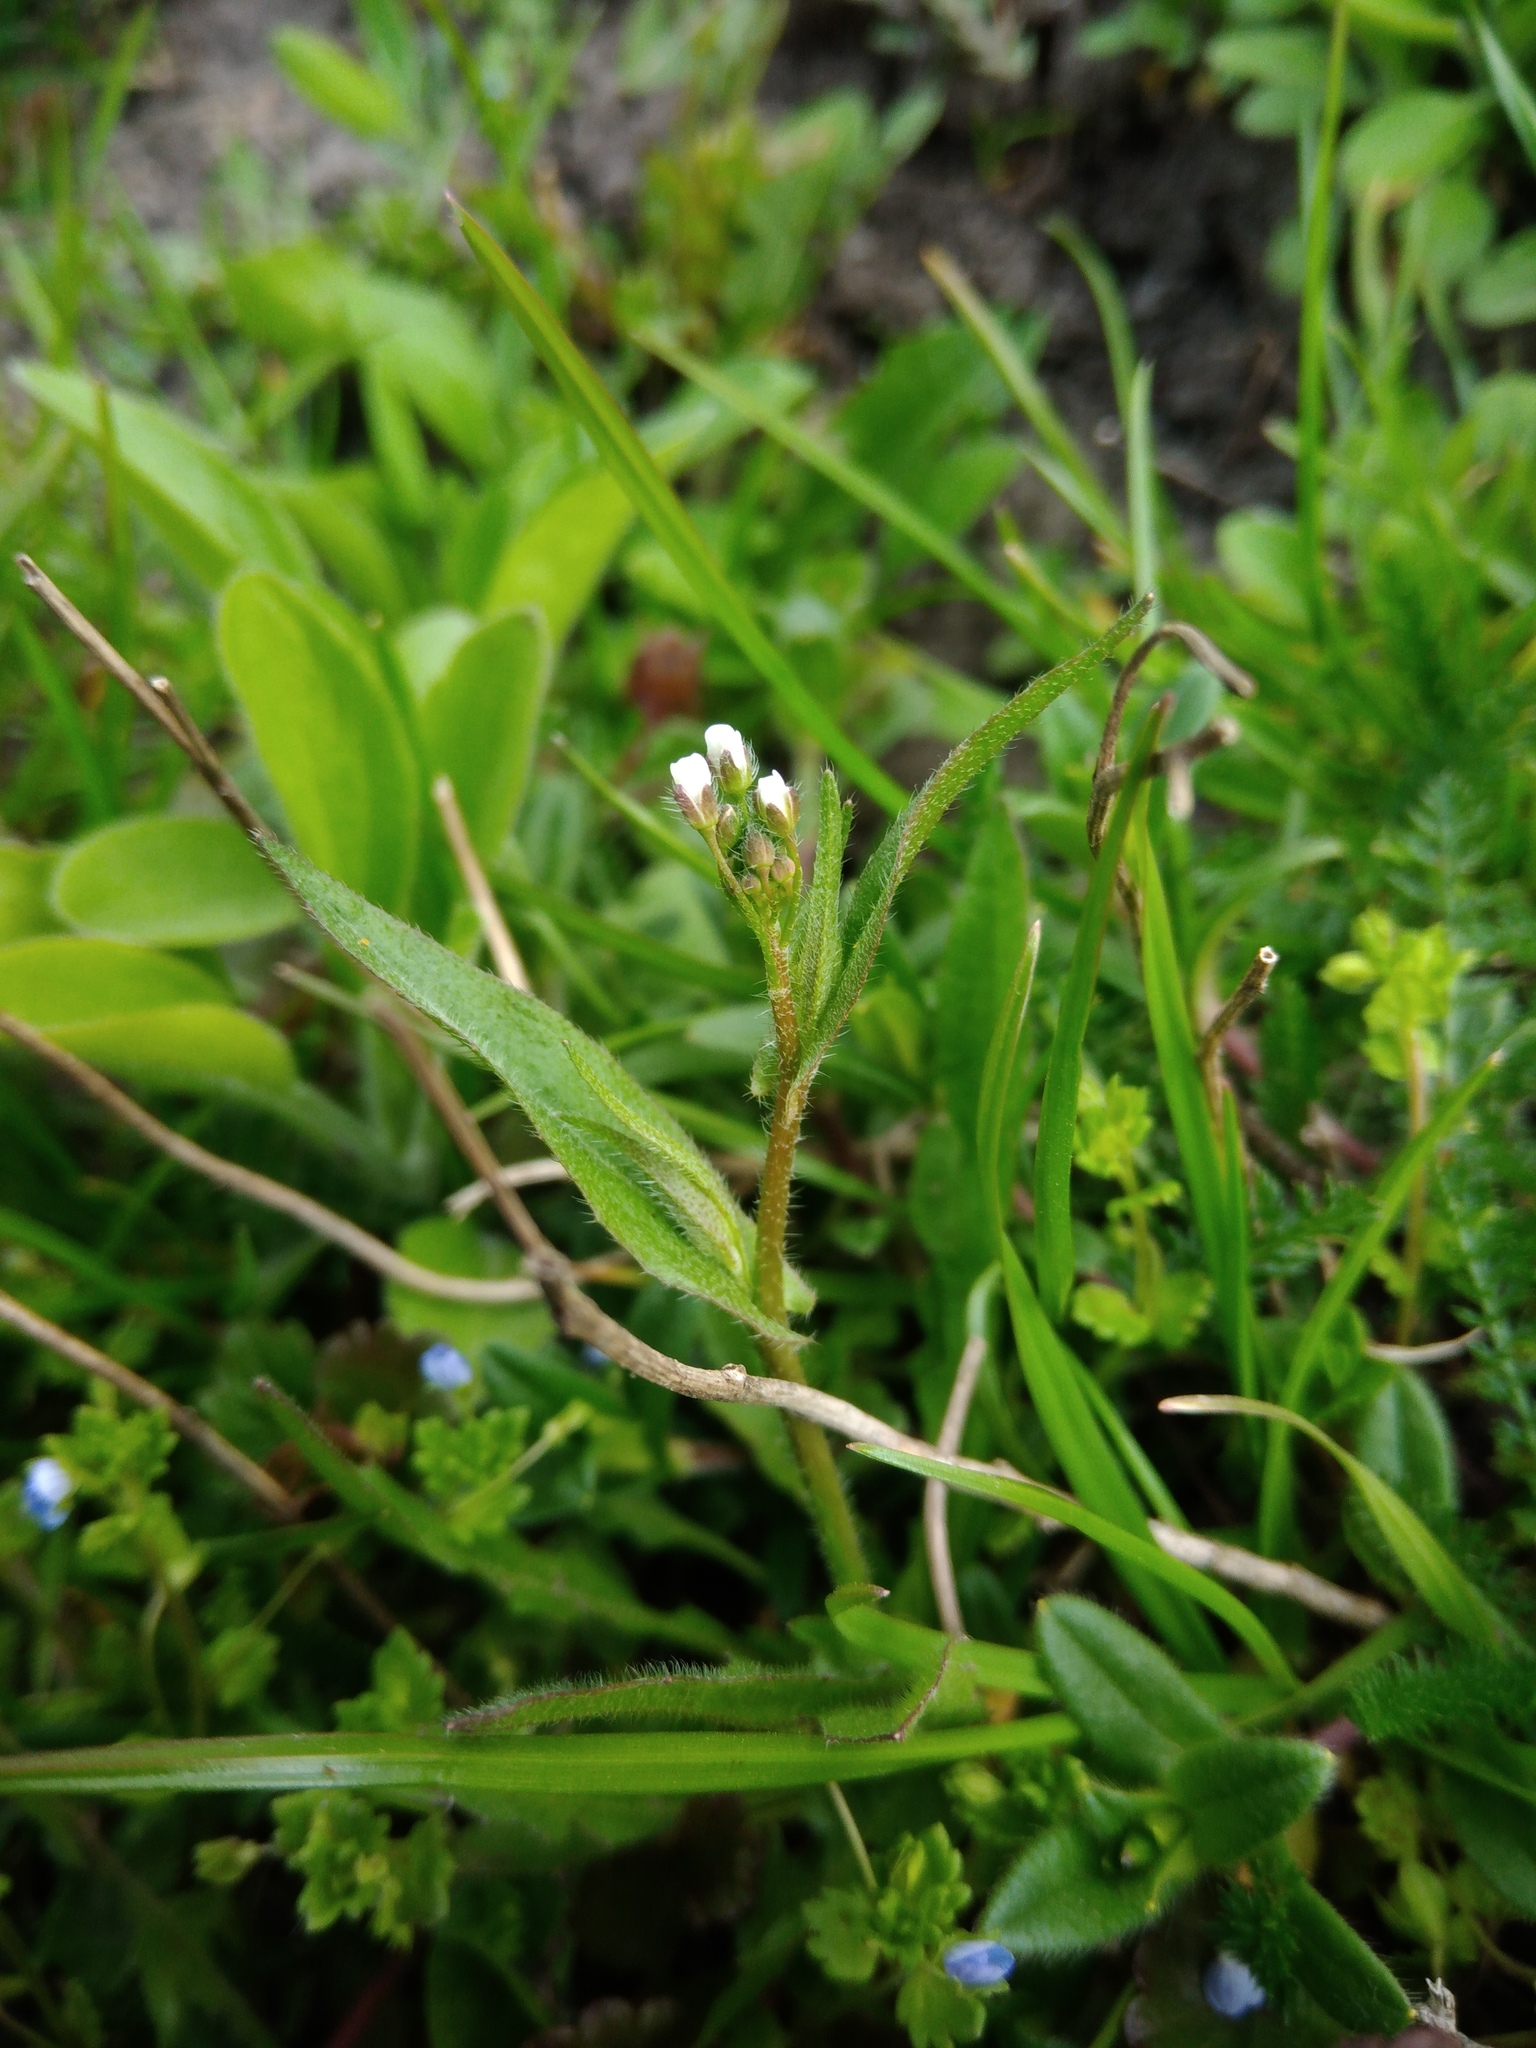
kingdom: Plantae
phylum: Tracheophyta
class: Magnoliopsida
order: Brassicales
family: Brassicaceae
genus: Capsella
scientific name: Capsella bursa-pastoris
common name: Shepherd's purse
